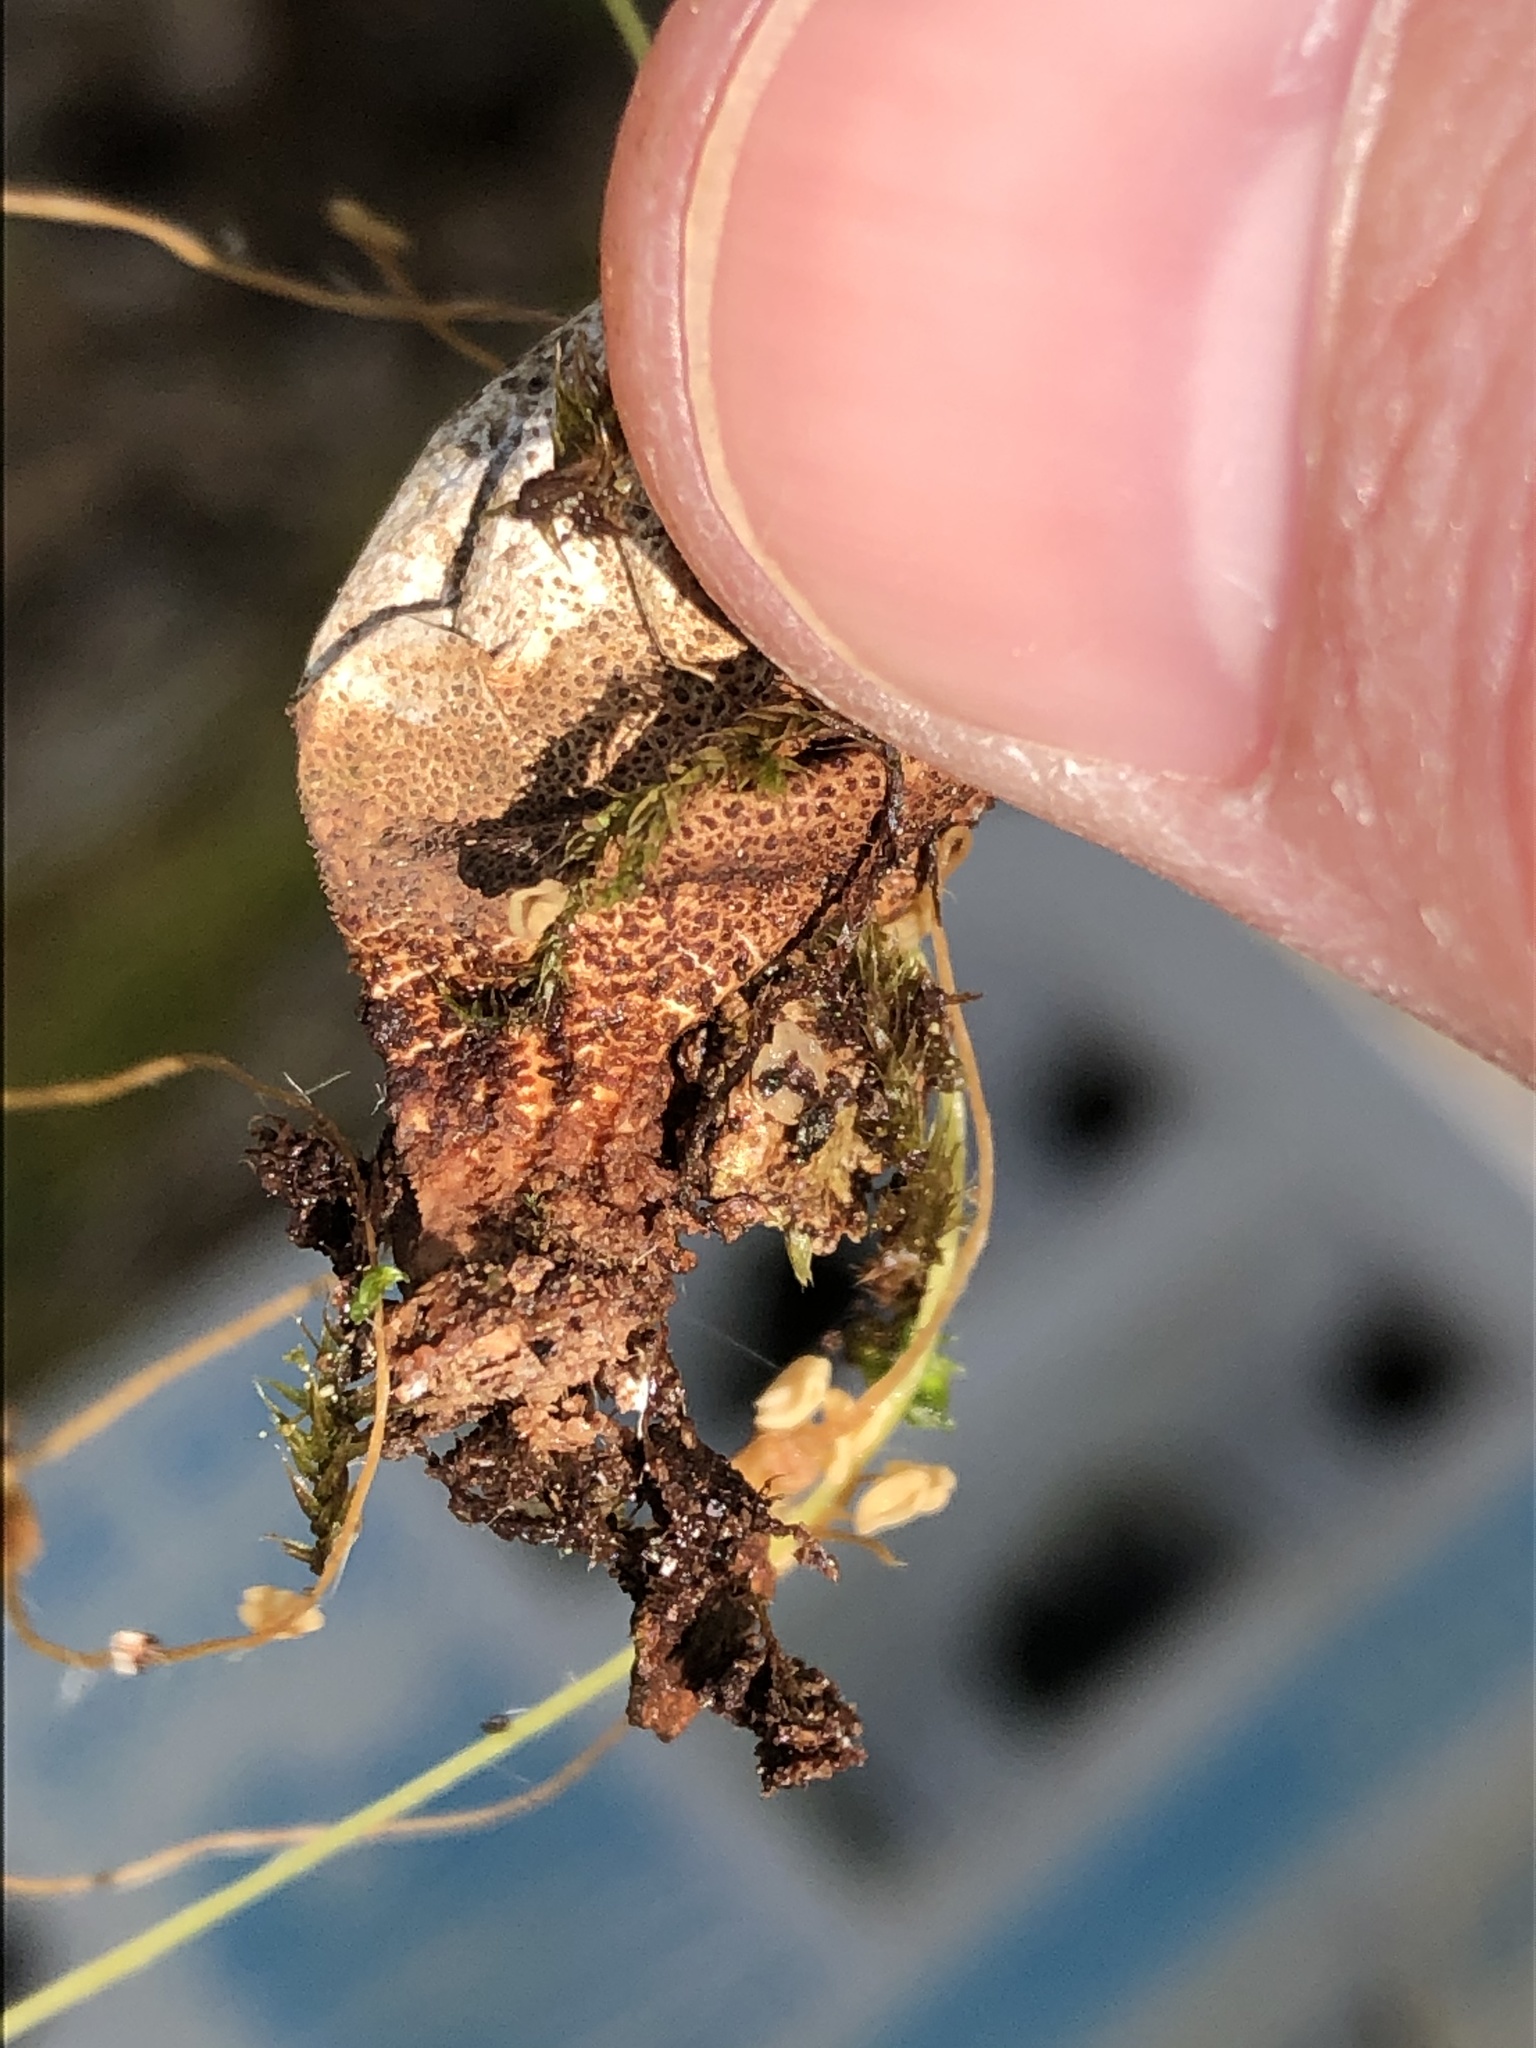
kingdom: Fungi
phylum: Basidiomycota
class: Agaricomycetes
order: Agaricales
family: Lycoperdaceae
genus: Apioperdon
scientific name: Apioperdon pyriforme
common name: Pear-shaped puffball
